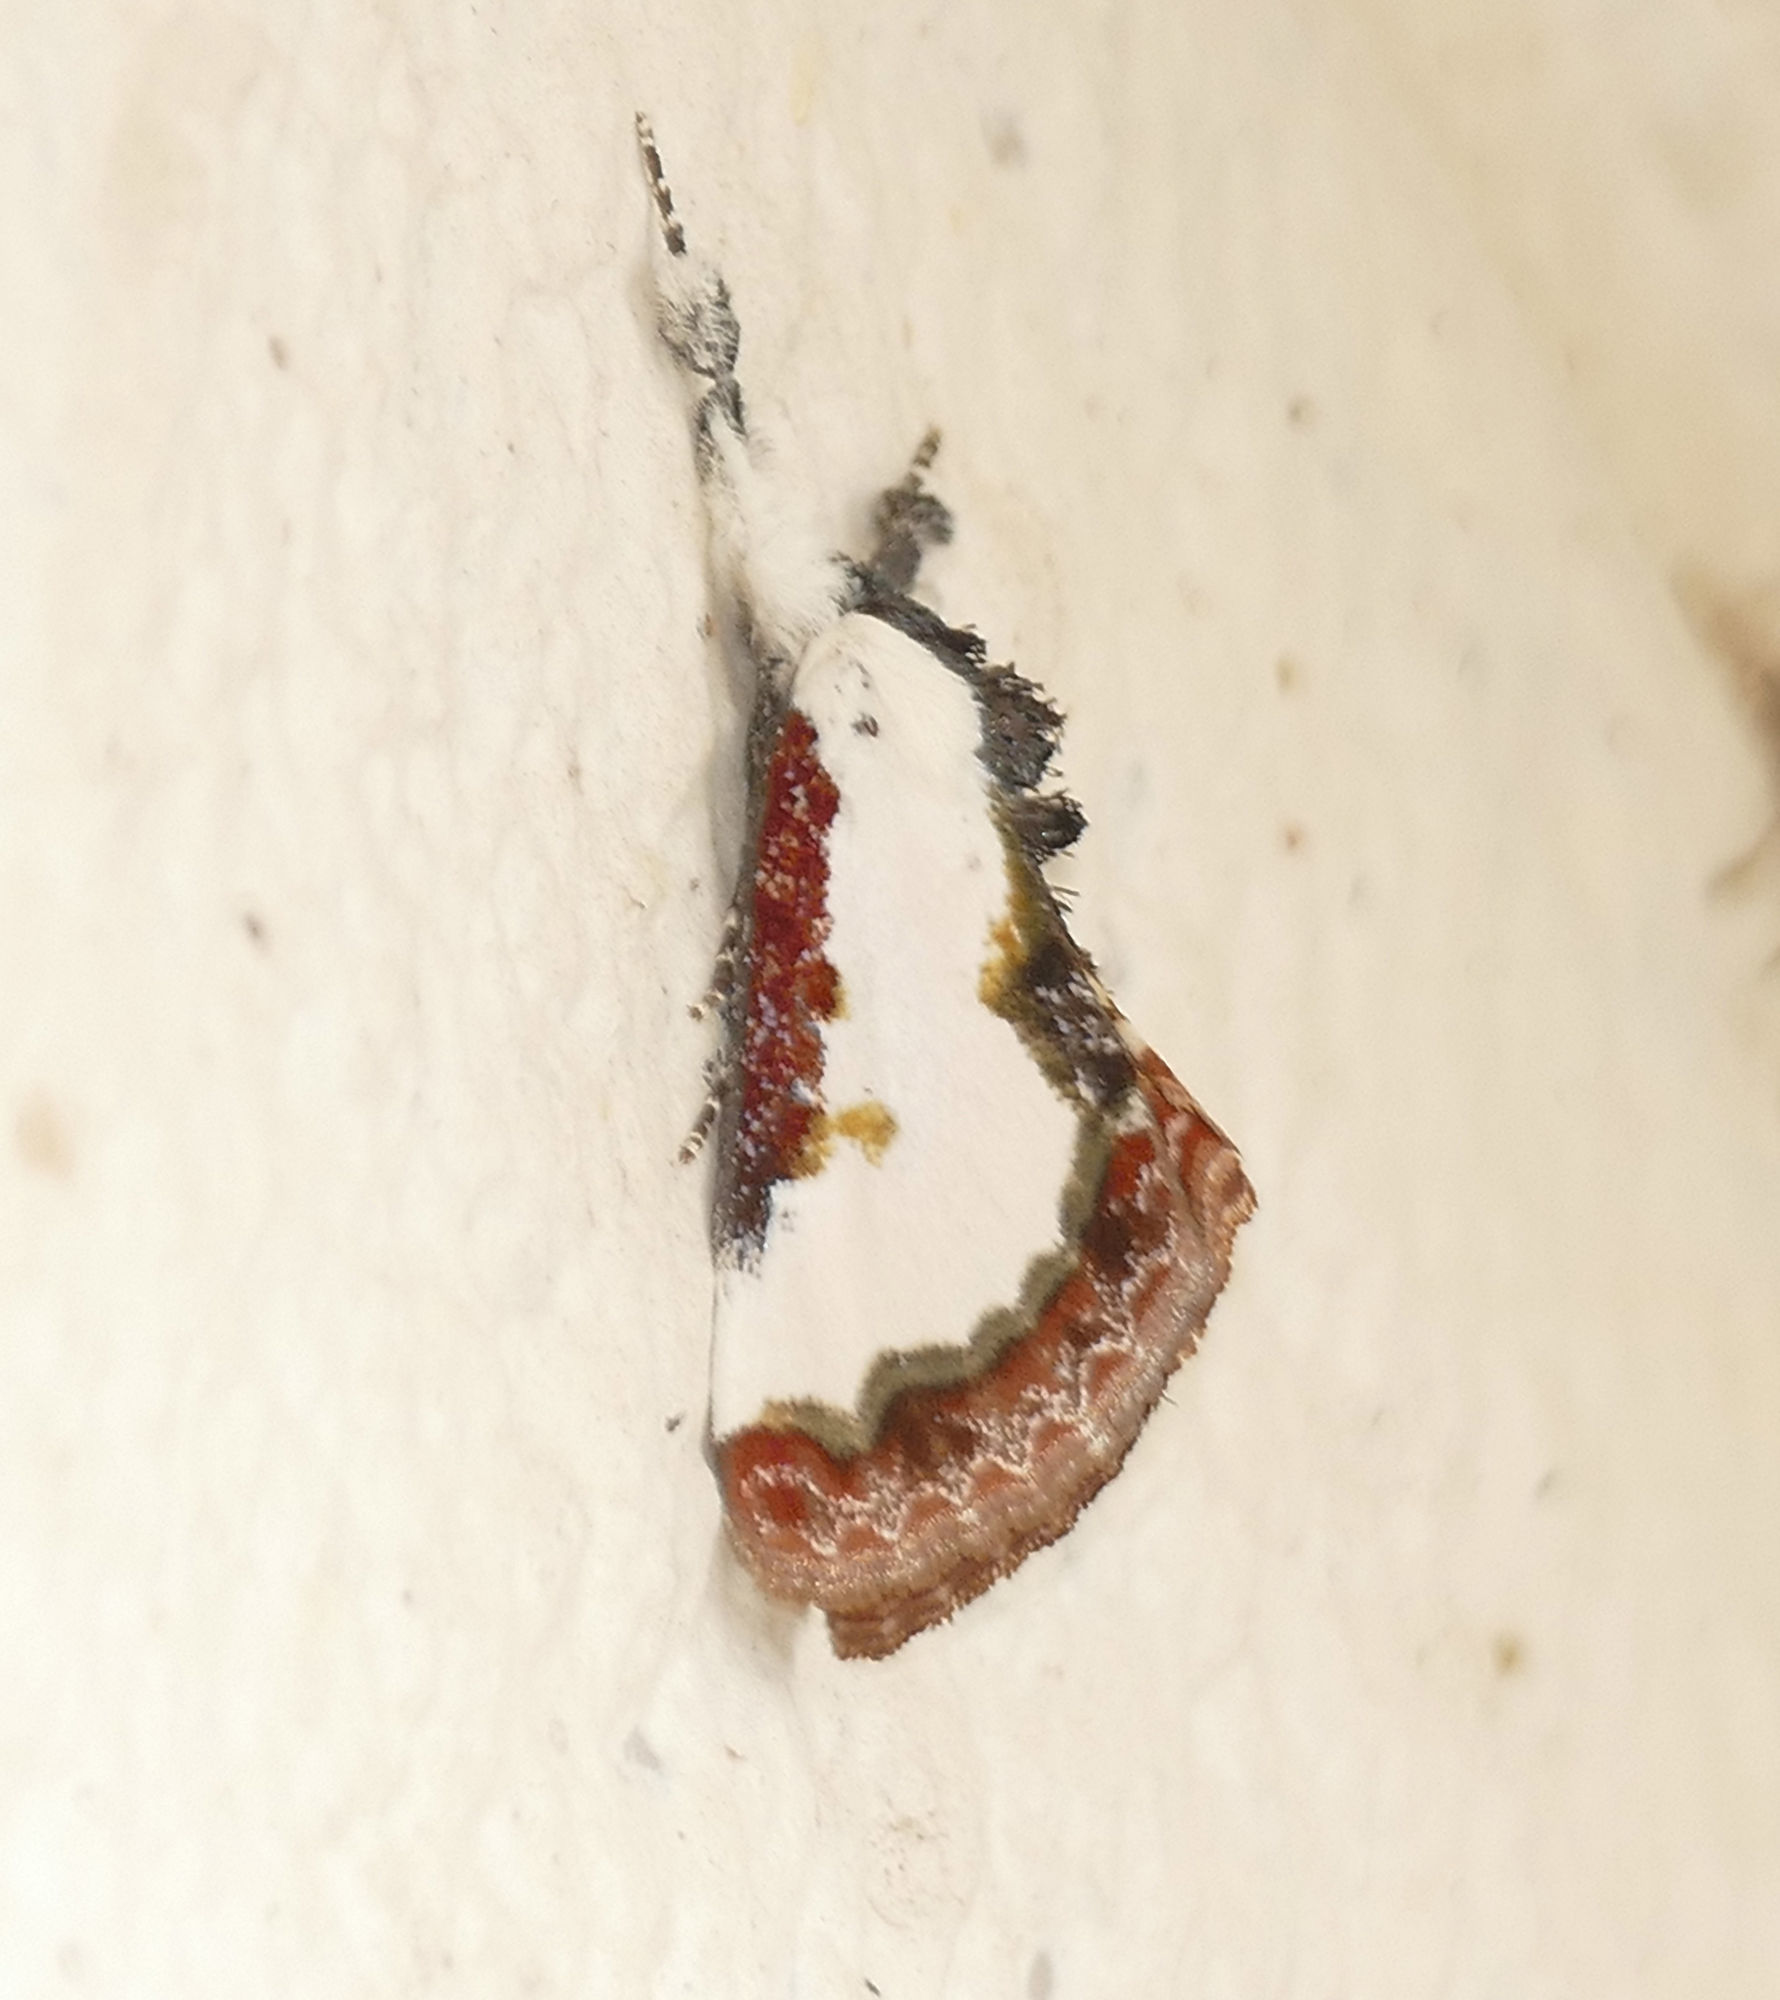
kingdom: Animalia
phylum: Arthropoda
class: Insecta
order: Lepidoptera
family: Noctuidae
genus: Eudryas
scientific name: Eudryas unio
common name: Pearly wood-nymph
